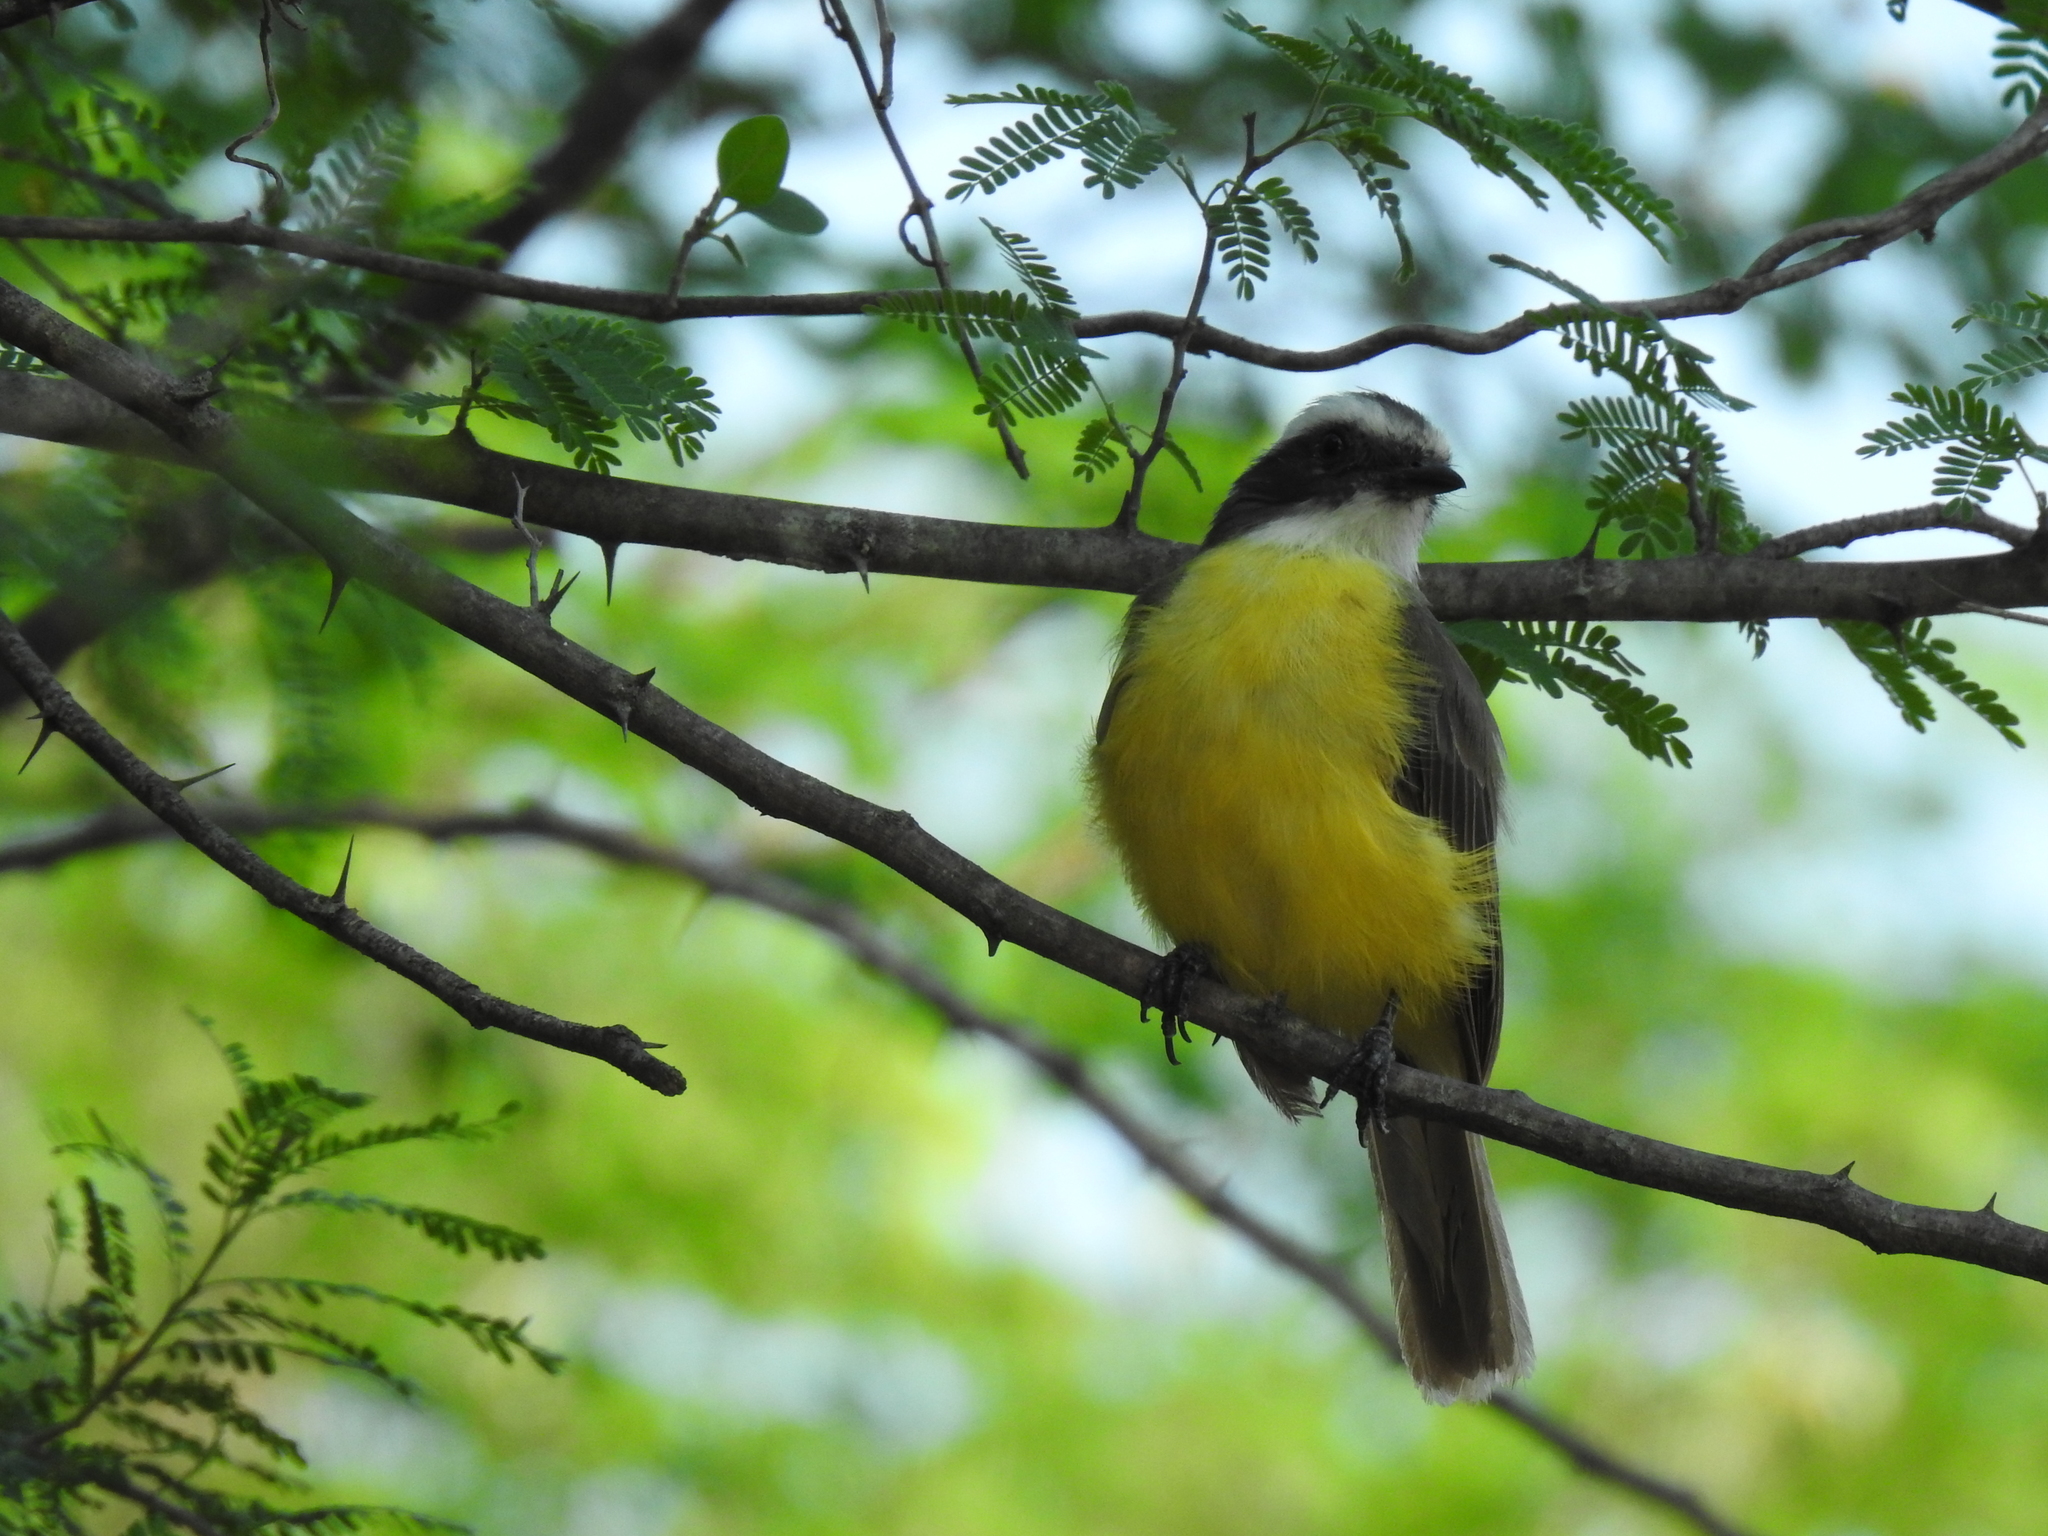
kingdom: Animalia
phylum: Chordata
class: Aves
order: Passeriformes
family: Tyrannidae
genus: Myiozetetes
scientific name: Myiozetetes similis
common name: Social flycatcher
